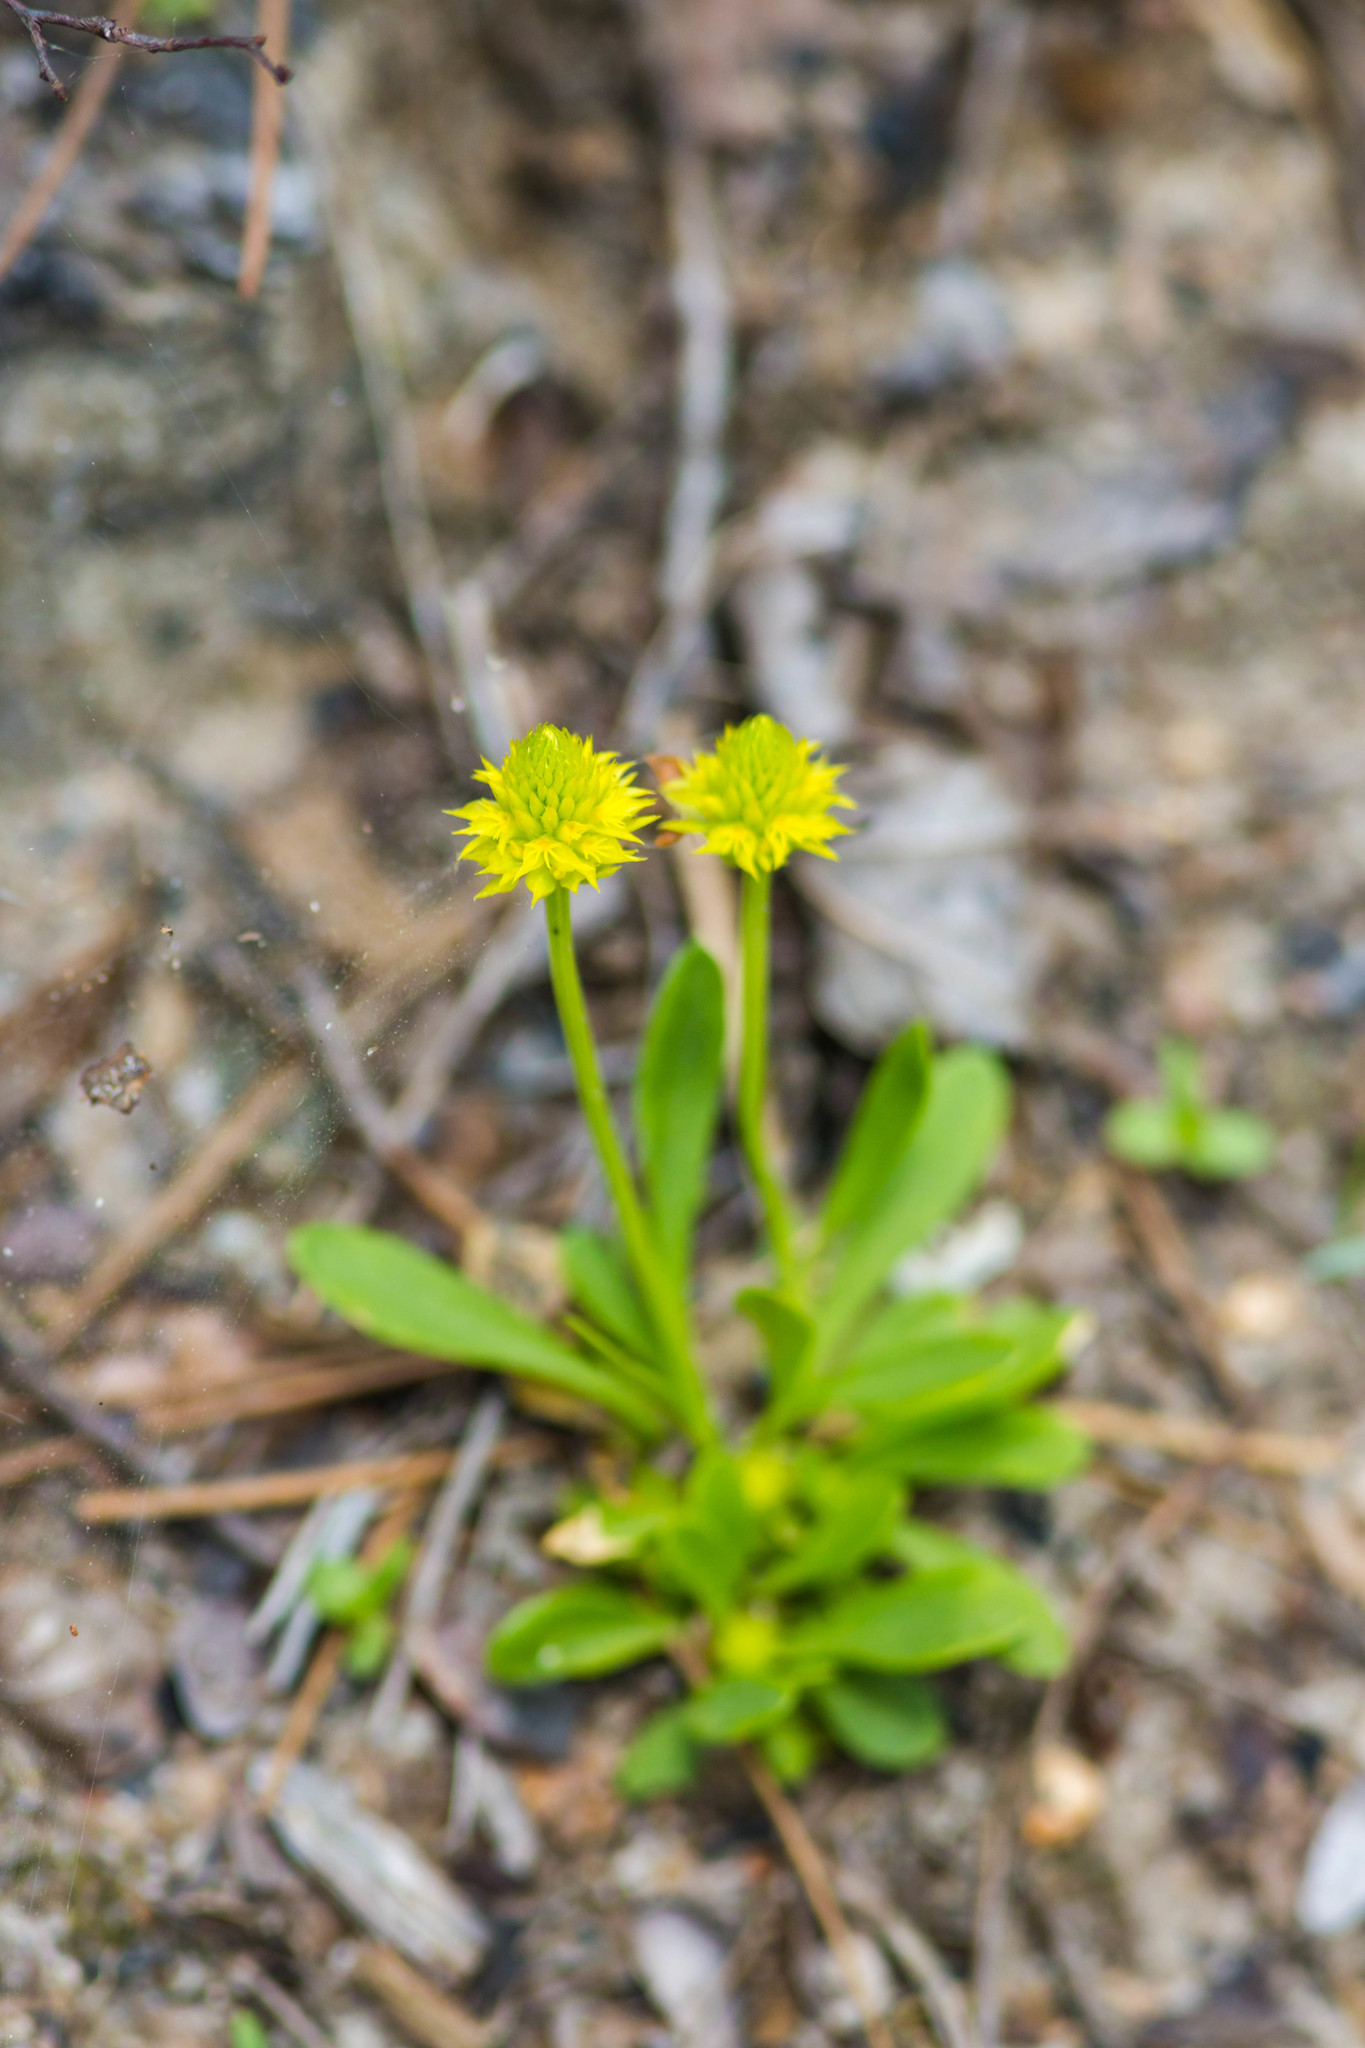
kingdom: Plantae
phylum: Tracheophyta
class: Magnoliopsida
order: Fabales
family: Polygalaceae
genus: Polygala
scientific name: Polygala nana
